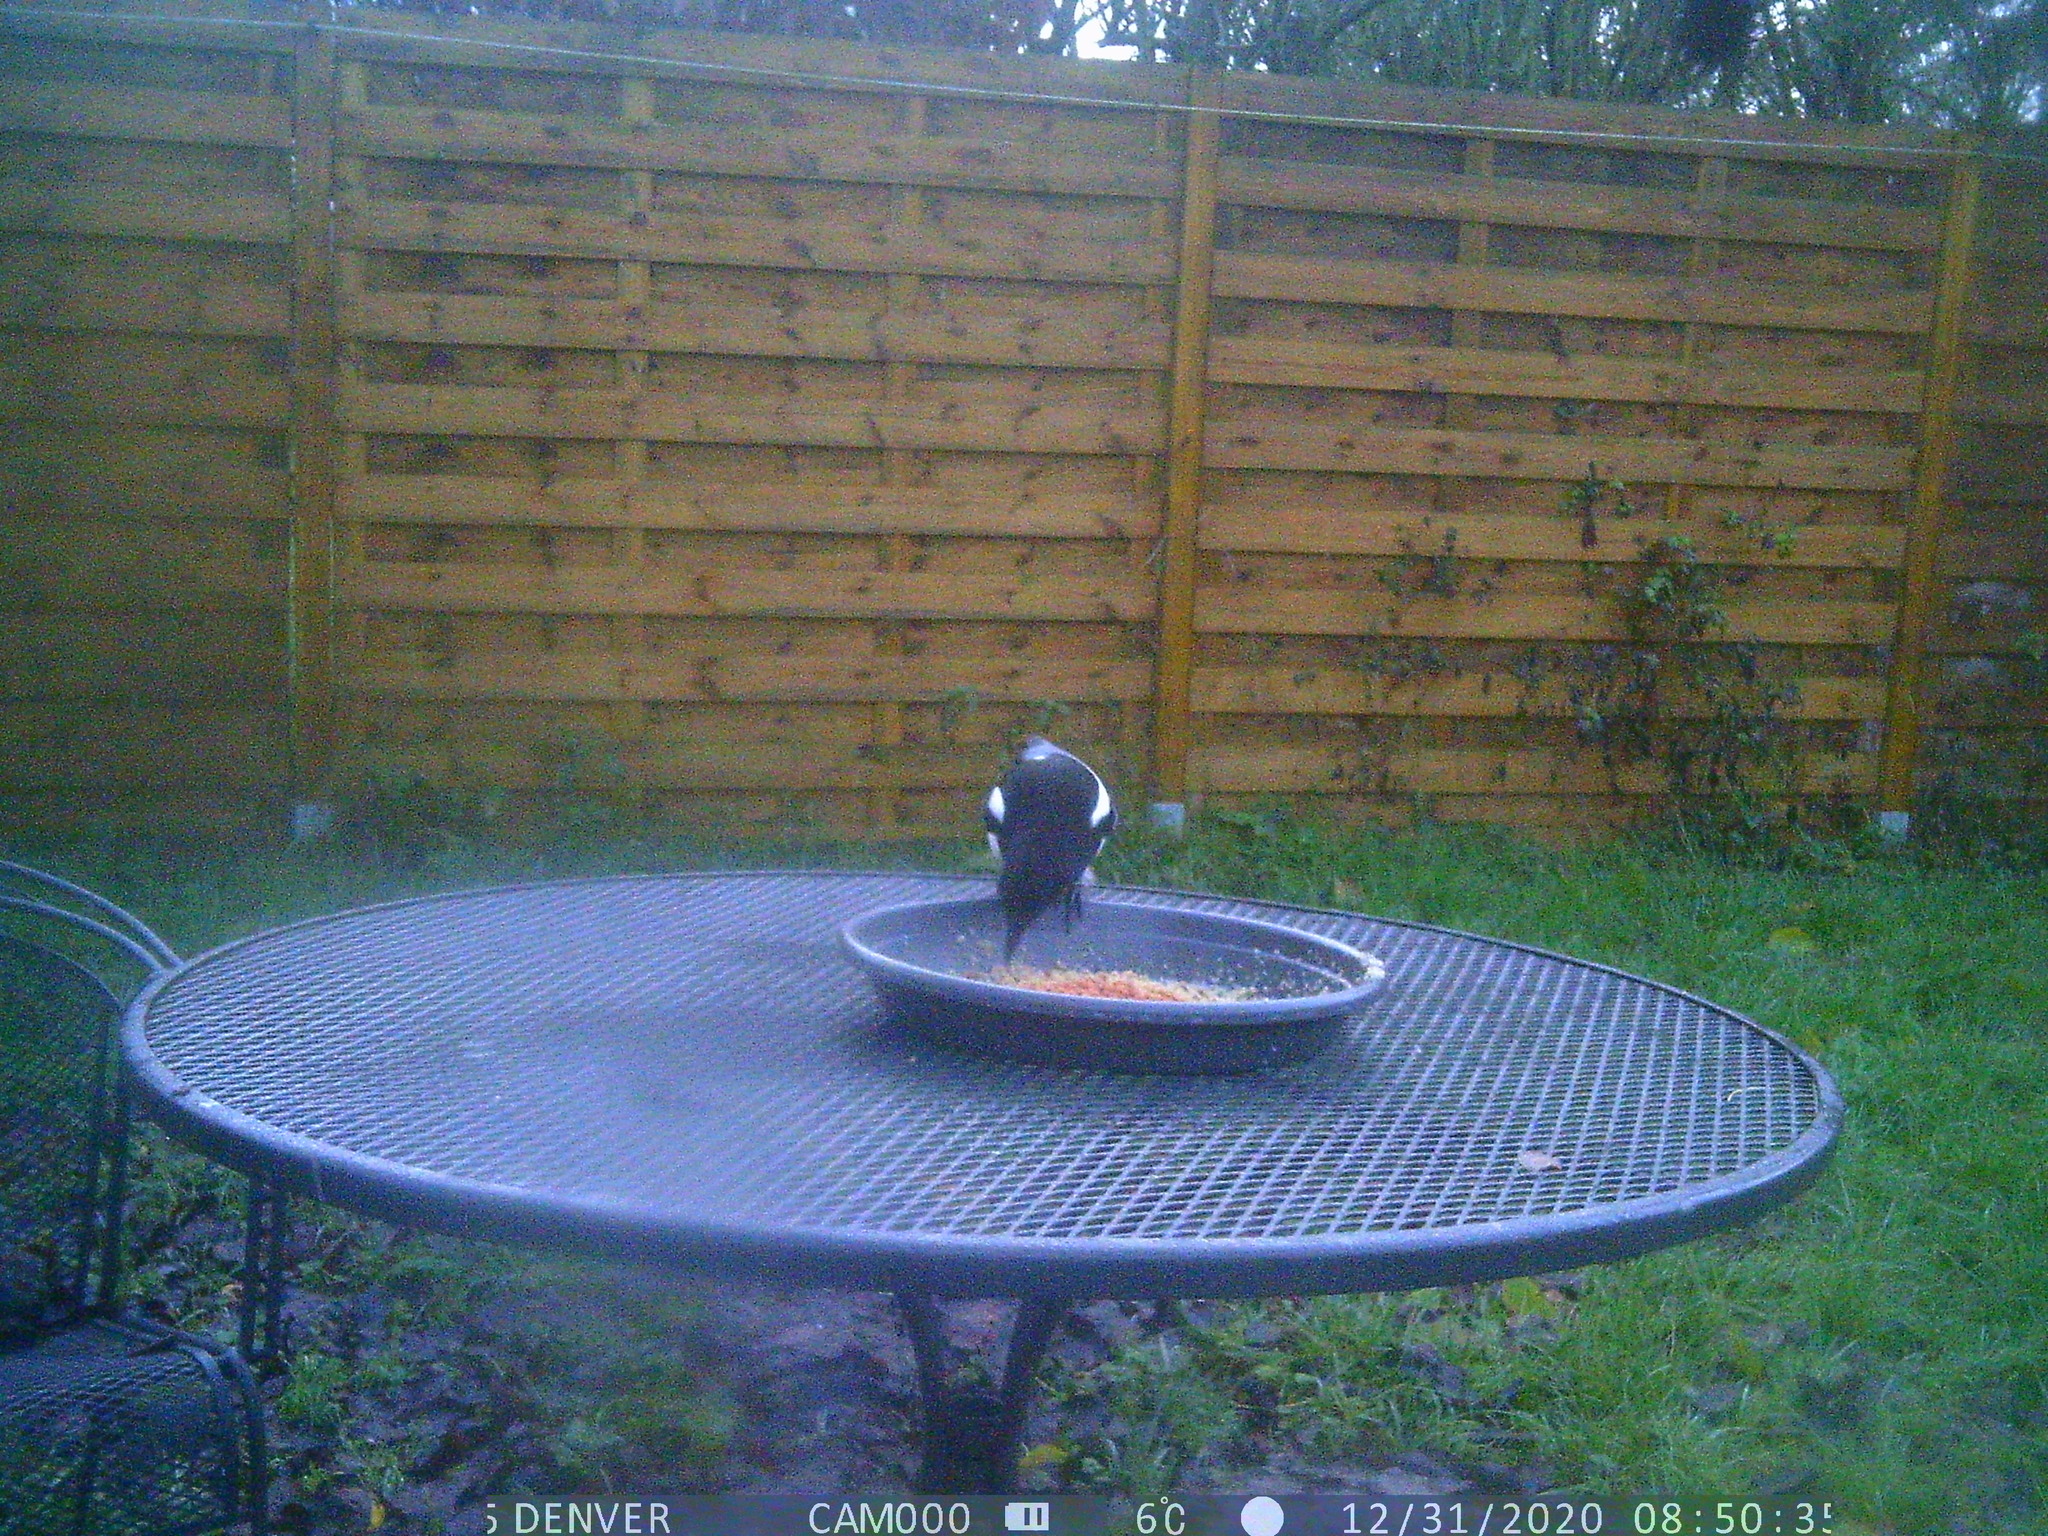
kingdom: Animalia
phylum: Chordata
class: Aves
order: Passeriformes
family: Corvidae
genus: Pica
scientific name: Pica pica
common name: Eurasian magpie
